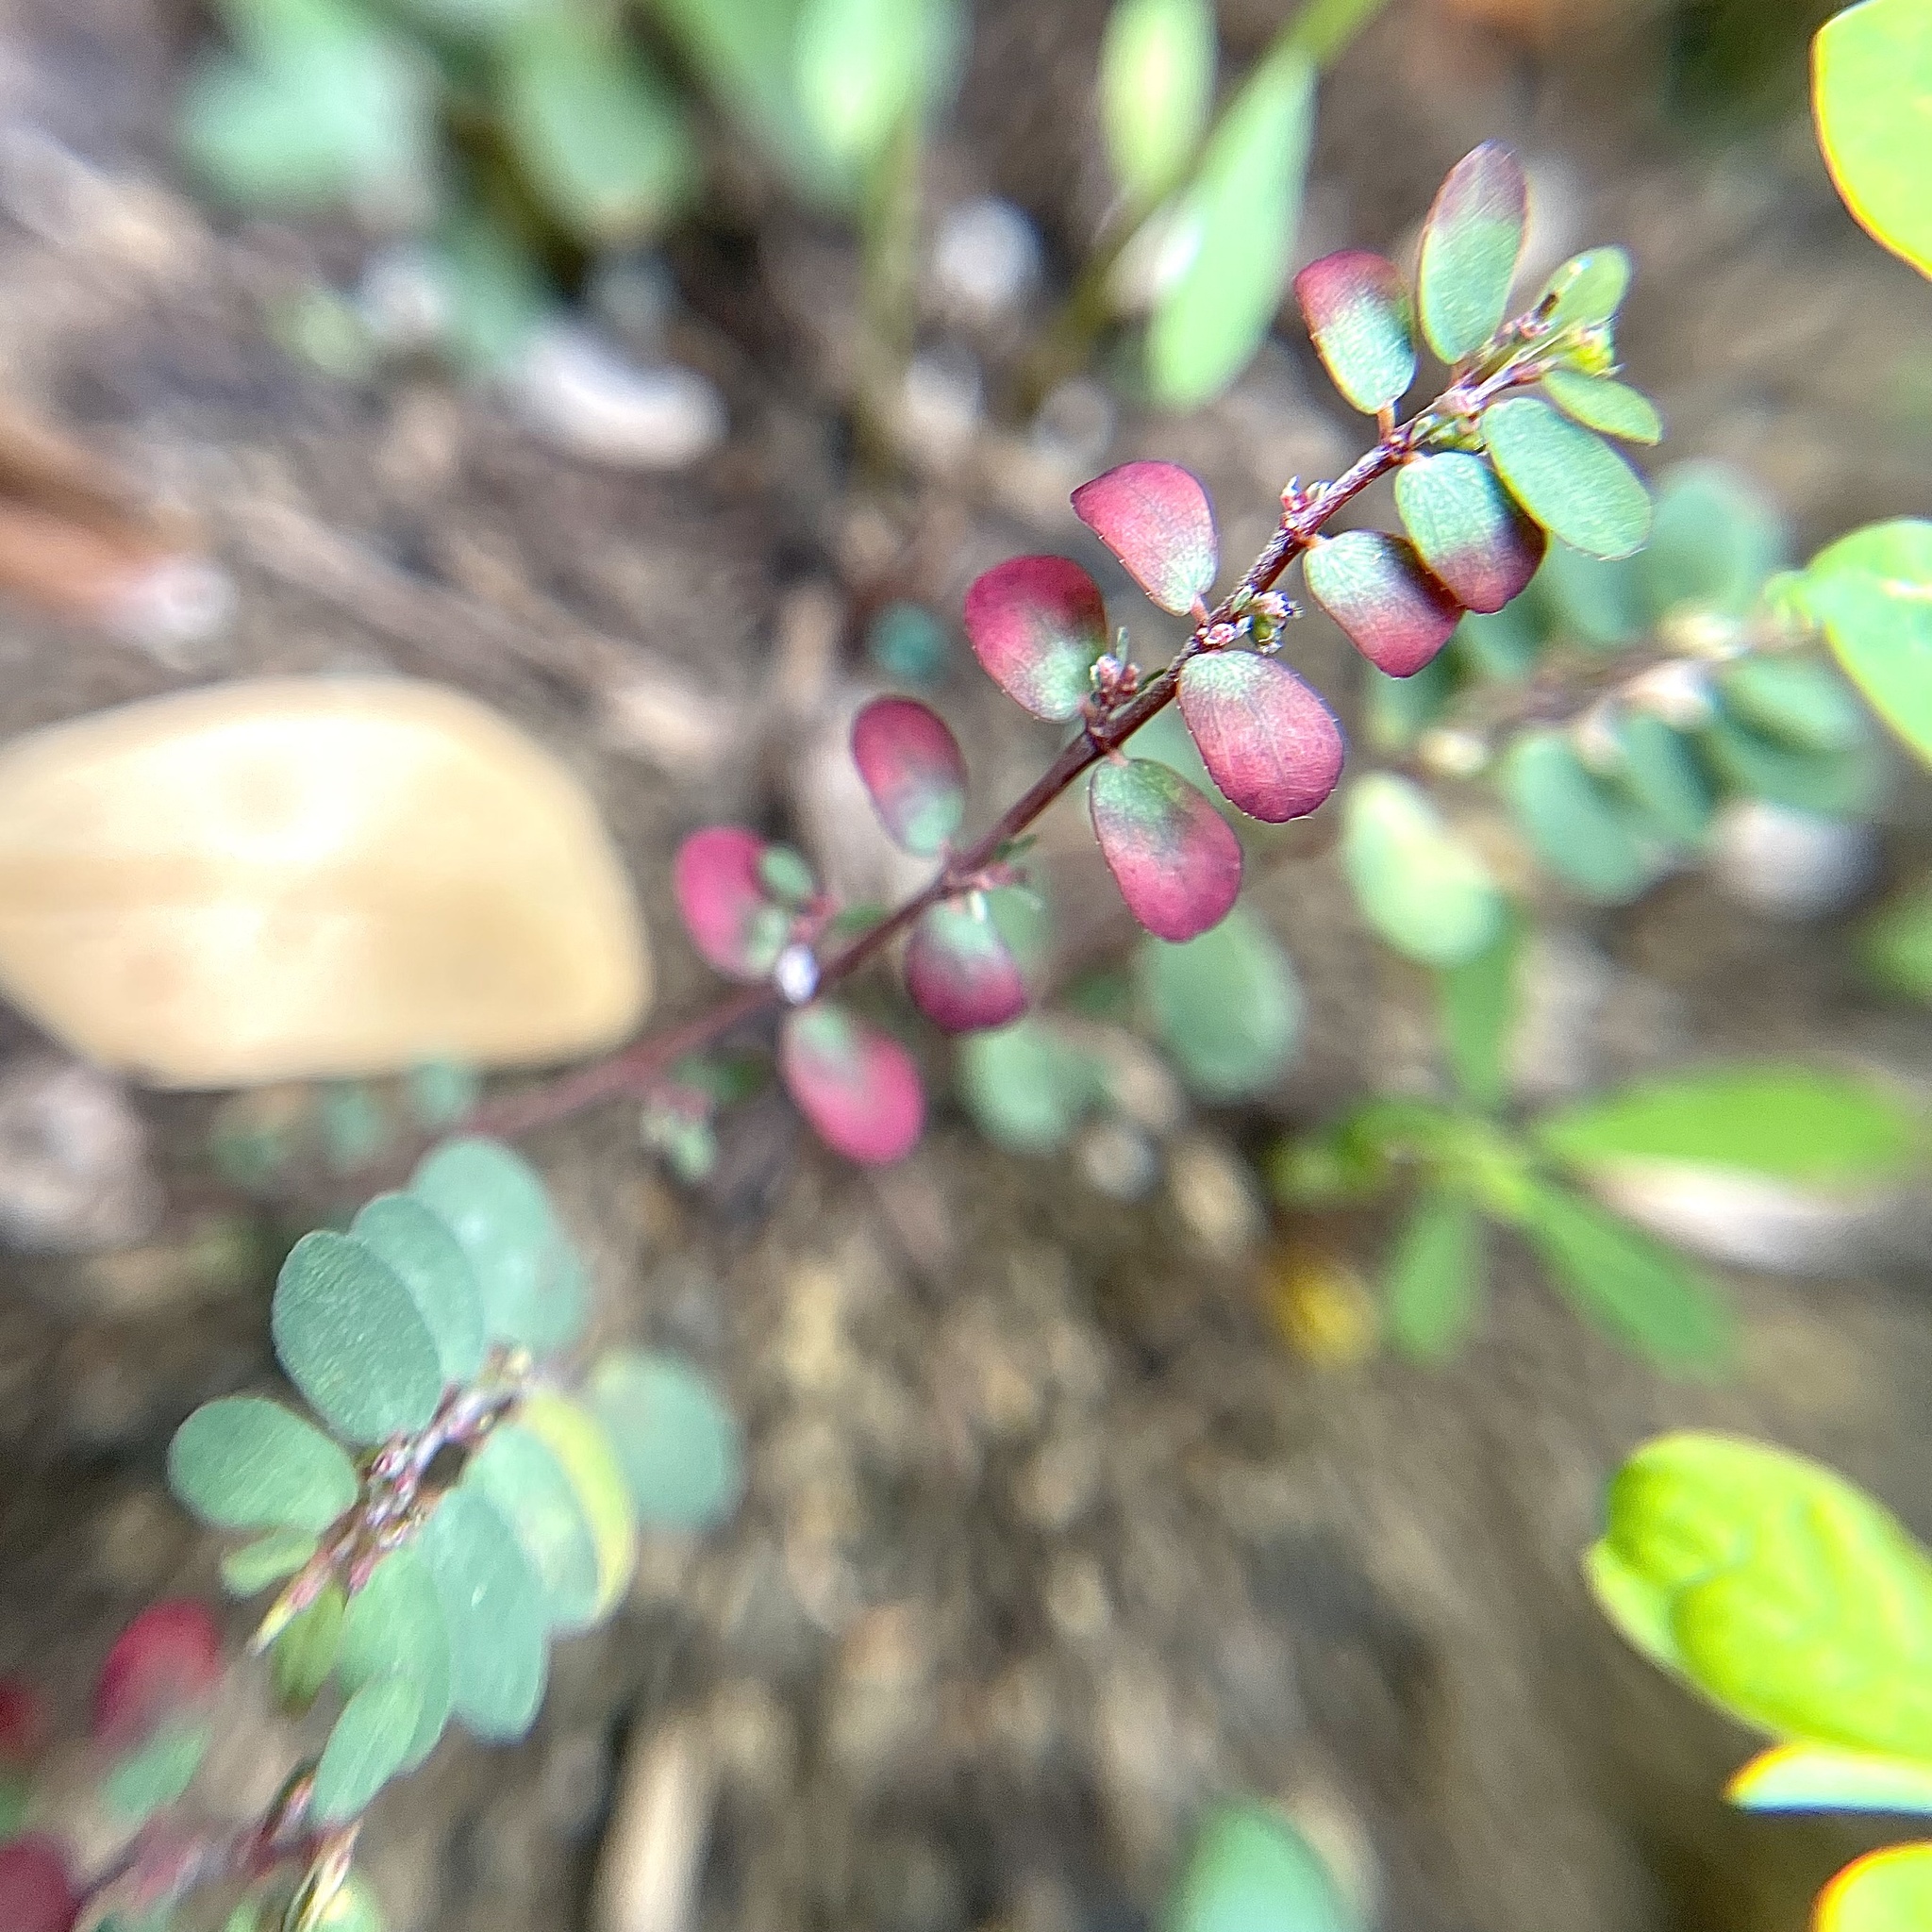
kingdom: Plantae
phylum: Tracheophyta
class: Magnoliopsida
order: Malpighiales
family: Euphorbiaceae
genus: Euphorbia
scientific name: Euphorbia prostrata
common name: Prostrate sandmat
